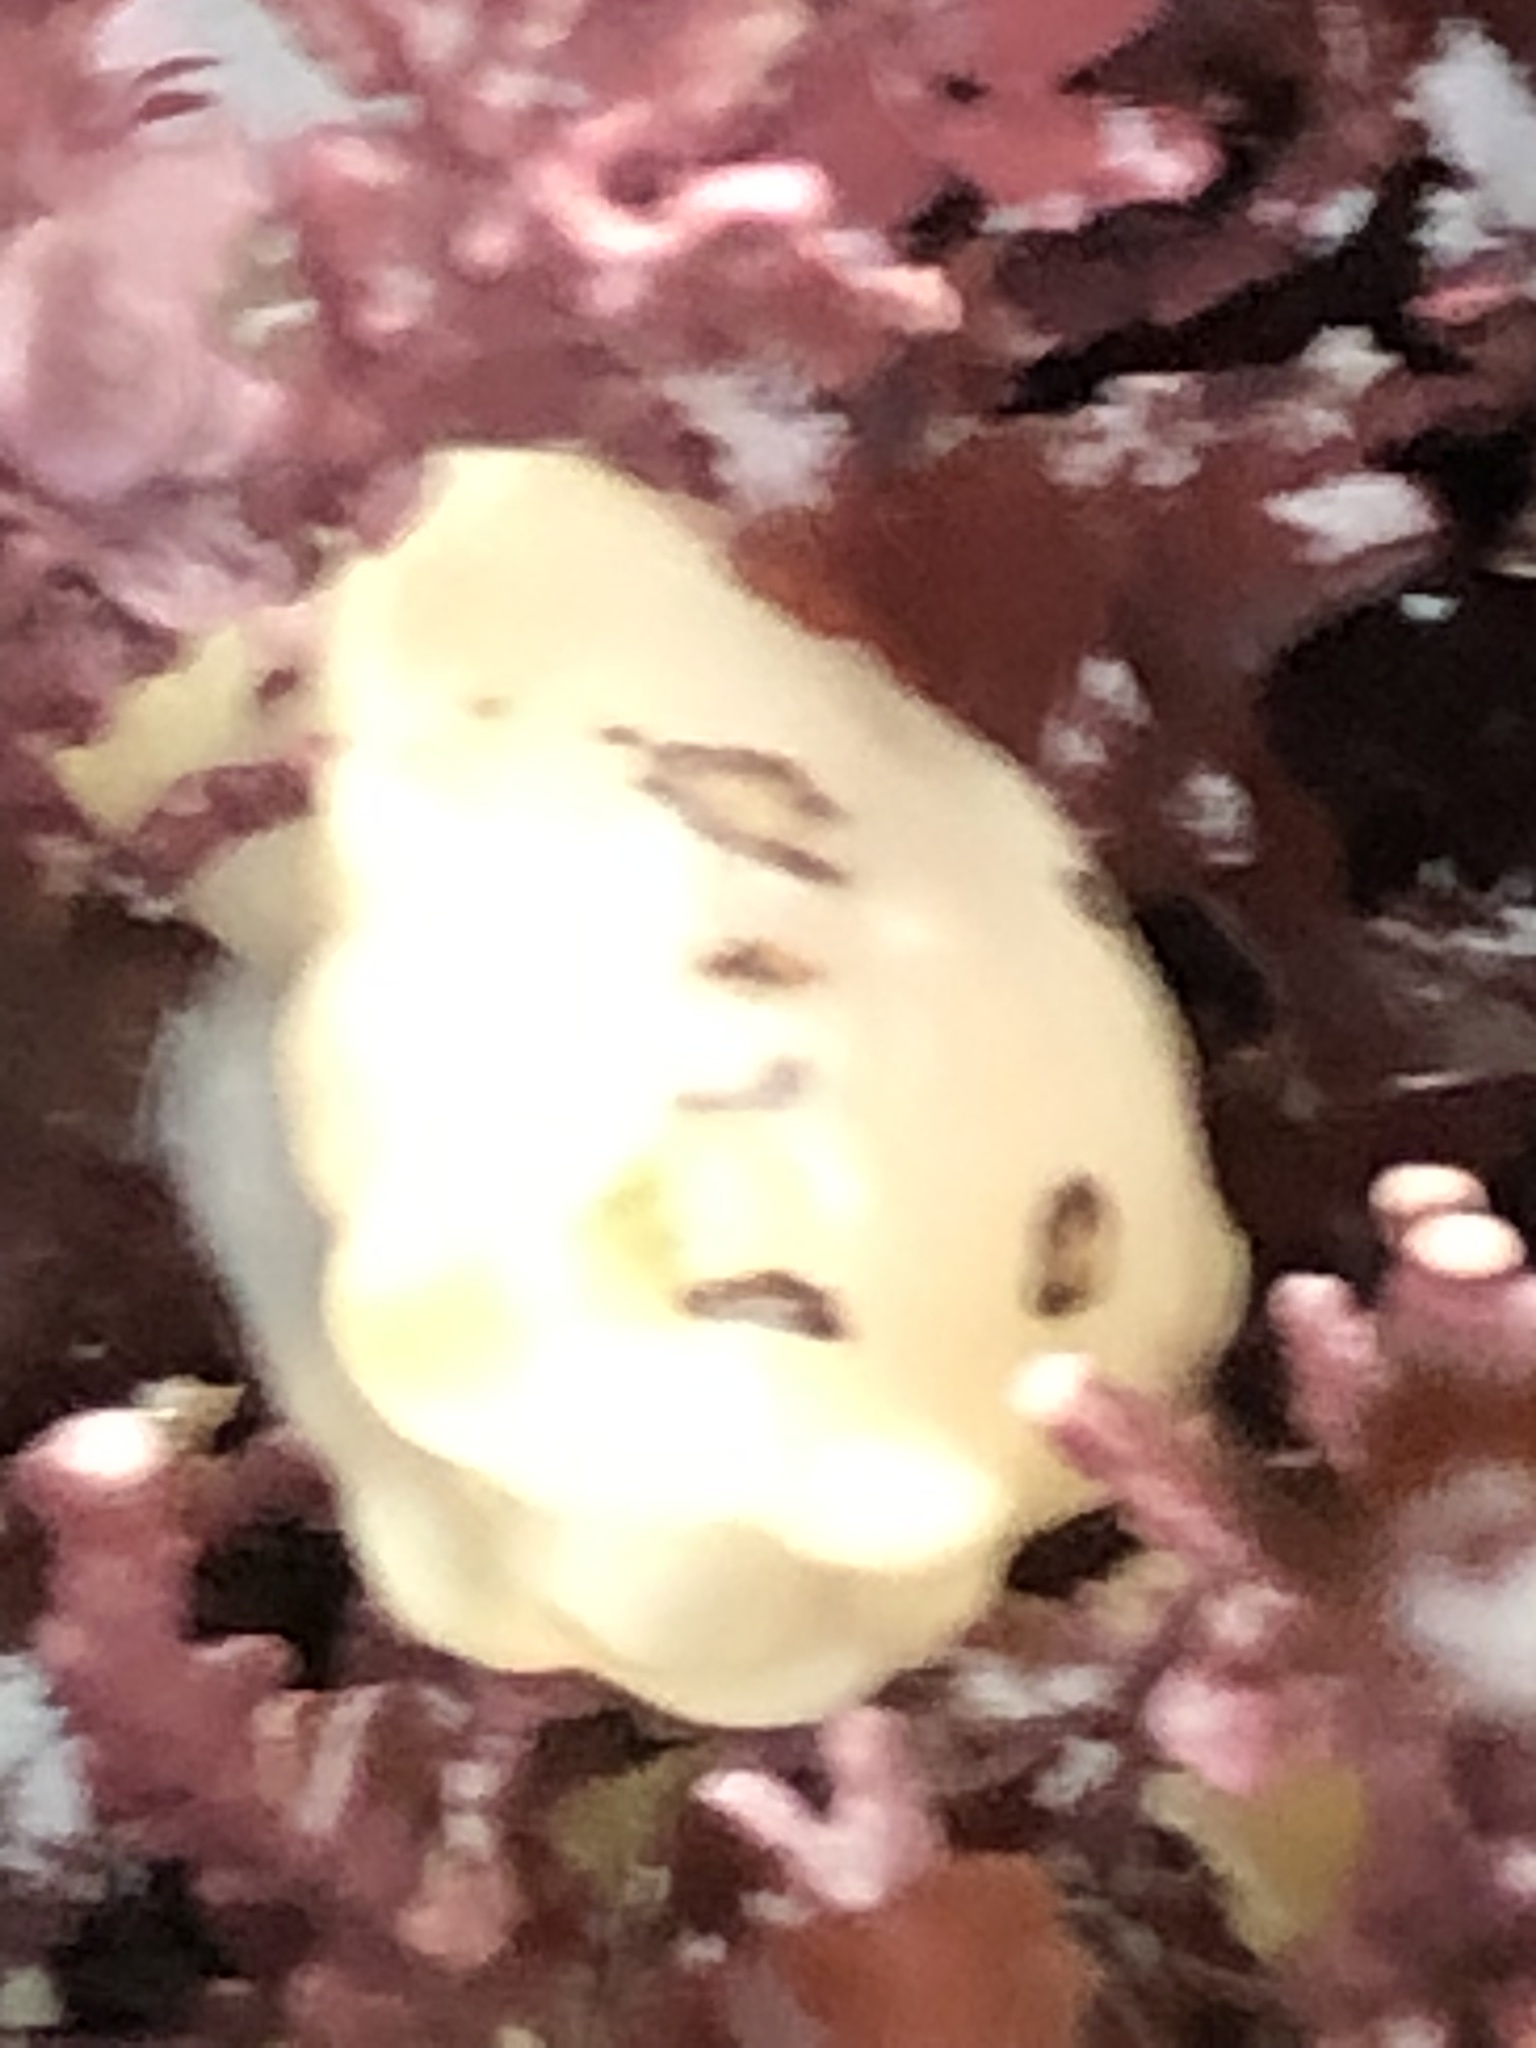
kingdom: Animalia
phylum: Mollusca
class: Gastropoda
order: Nudibranchia
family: Discodorididae
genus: Diaulula
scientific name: Diaulula sandiegensis
